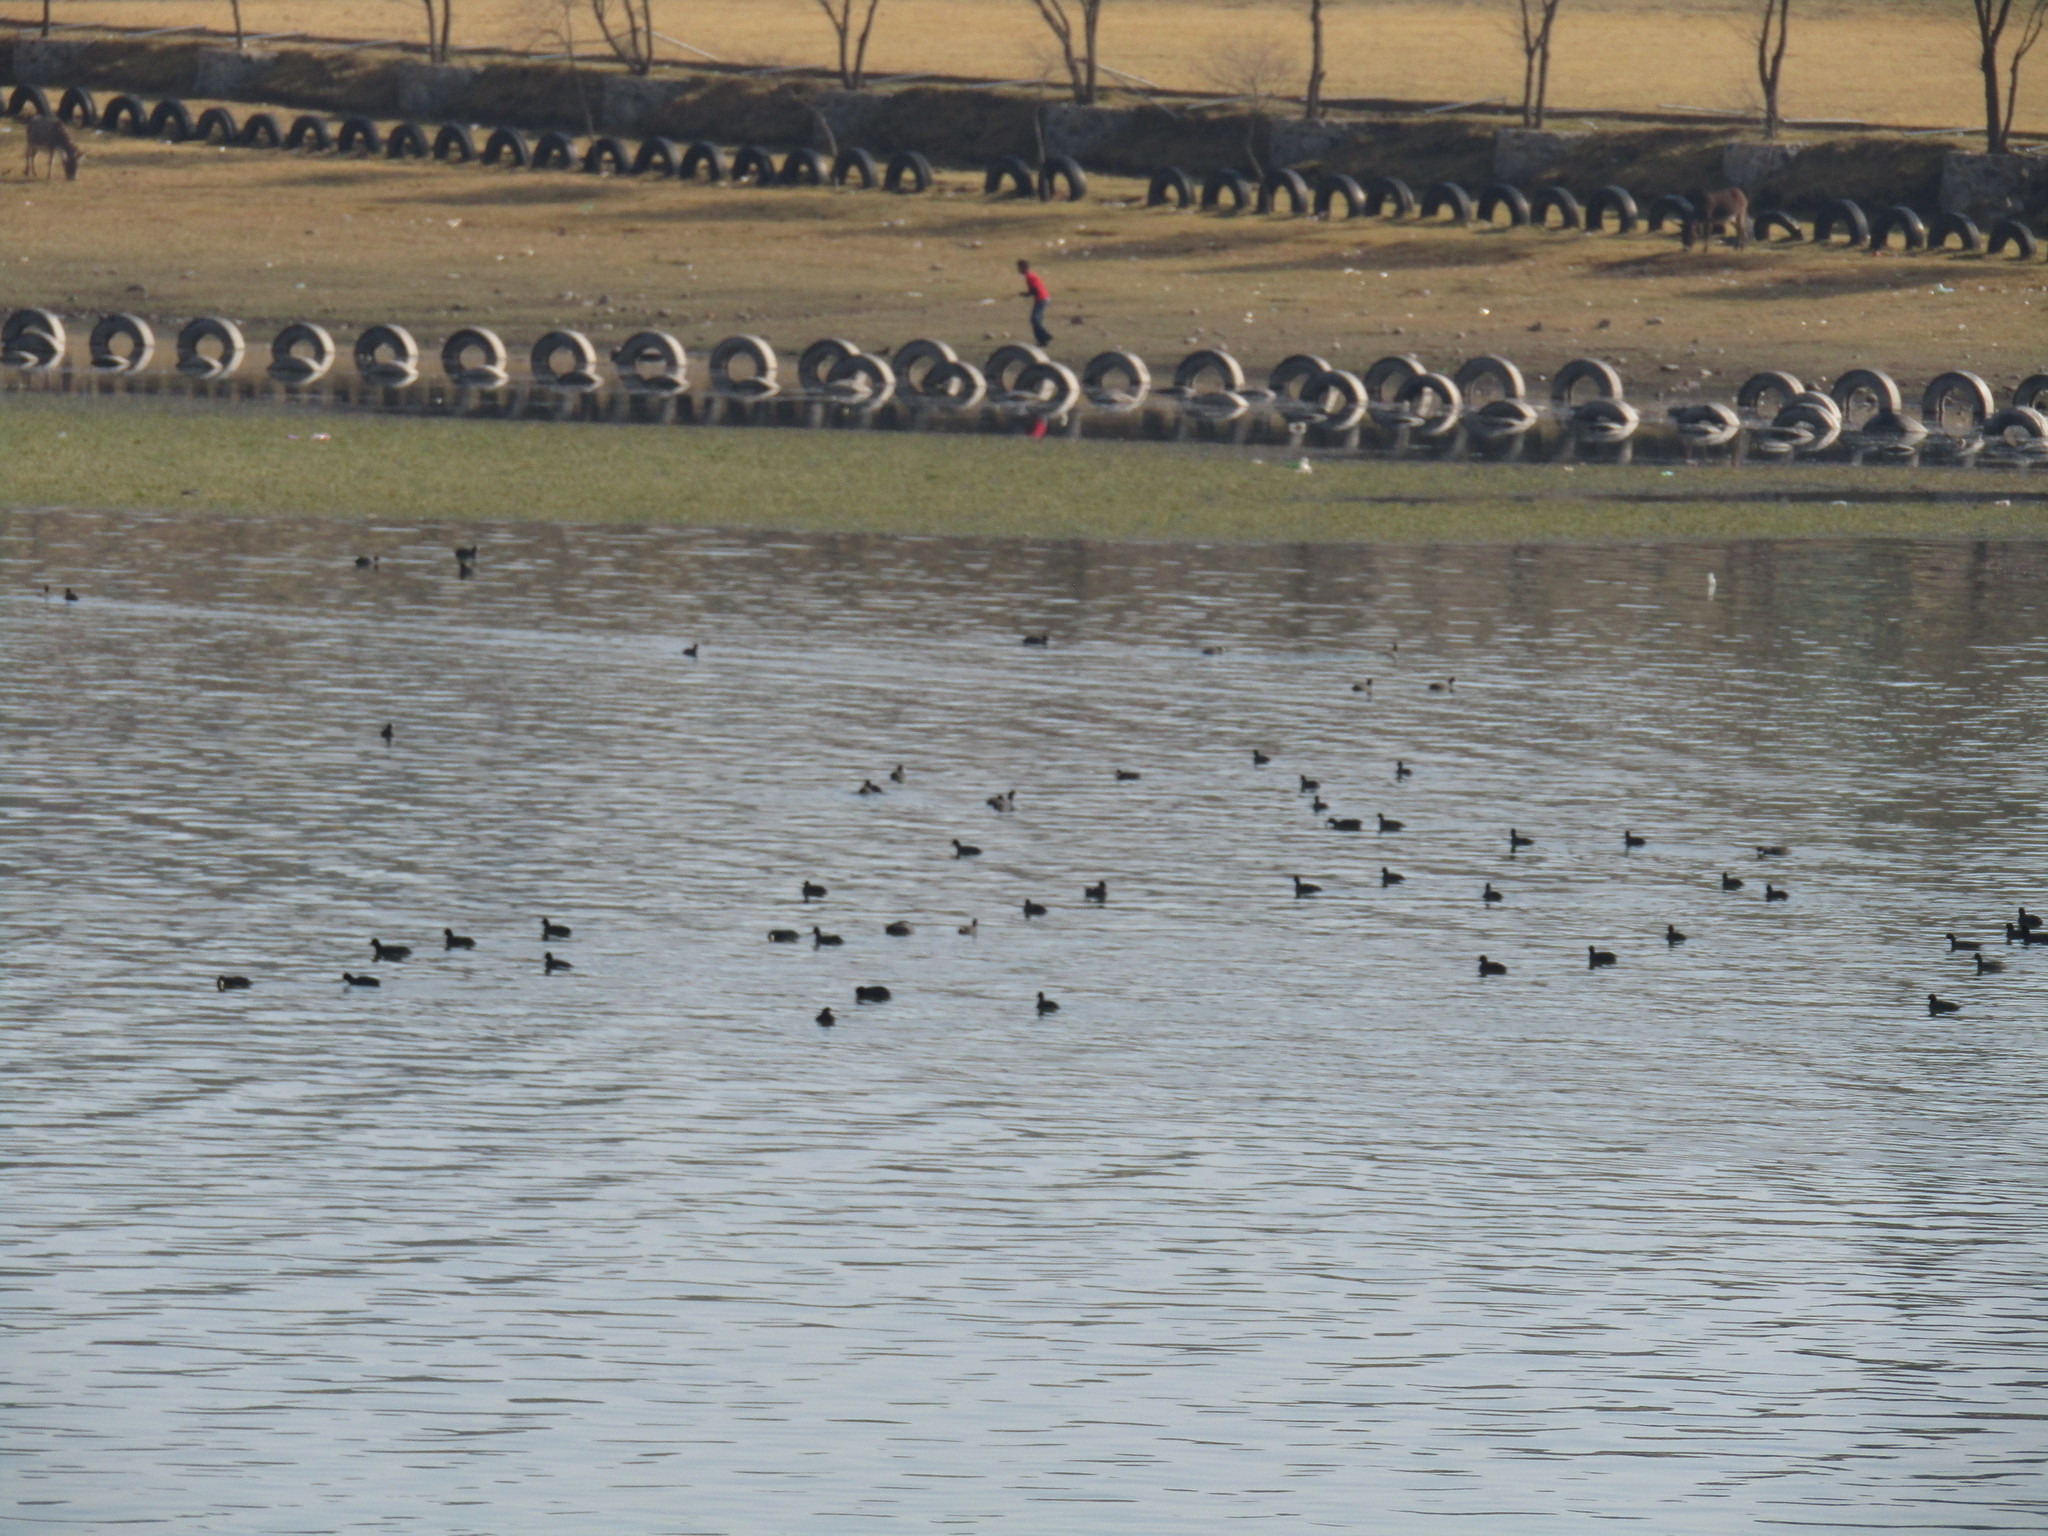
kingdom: Animalia
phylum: Chordata
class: Aves
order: Gruiformes
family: Rallidae
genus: Fulica
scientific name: Fulica americana
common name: American coot
